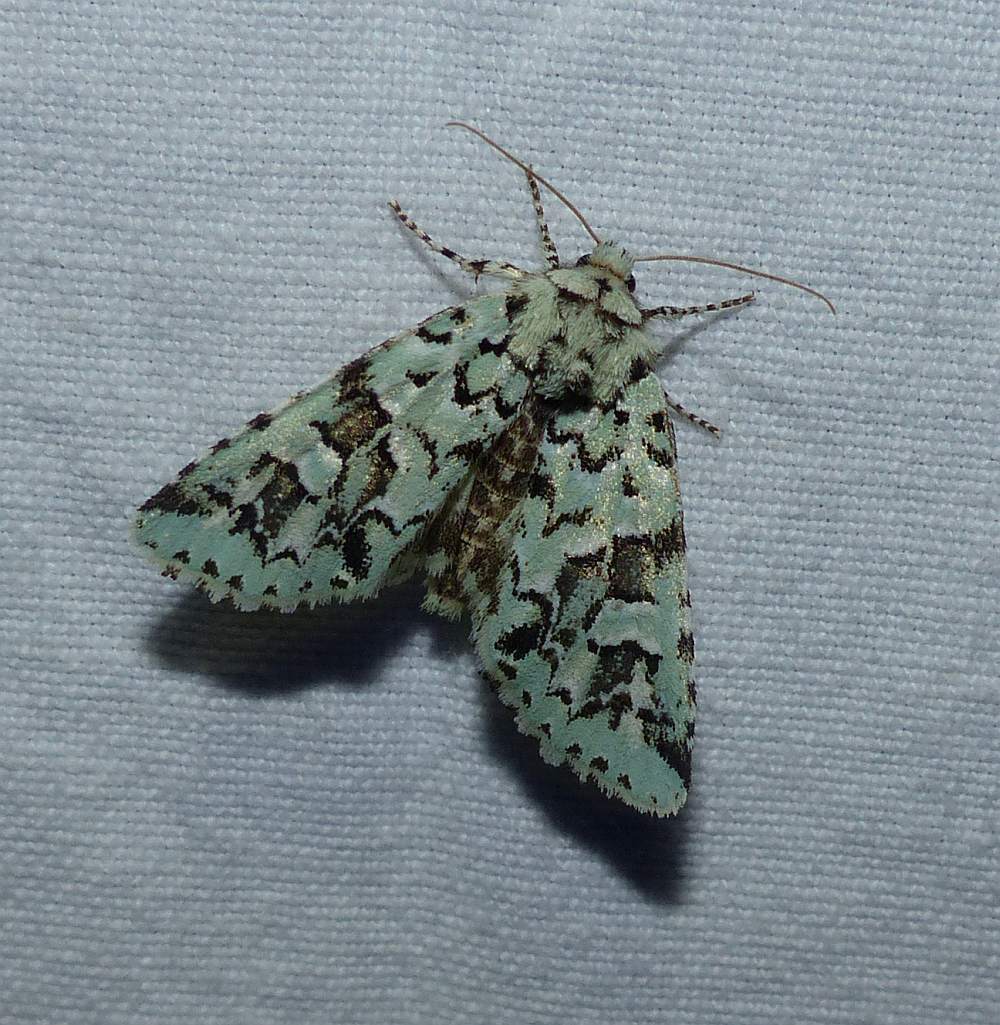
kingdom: Animalia
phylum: Arthropoda
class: Insecta
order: Lepidoptera
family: Noctuidae
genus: Feralia
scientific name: Feralia comstocki
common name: Comstock's sallow
